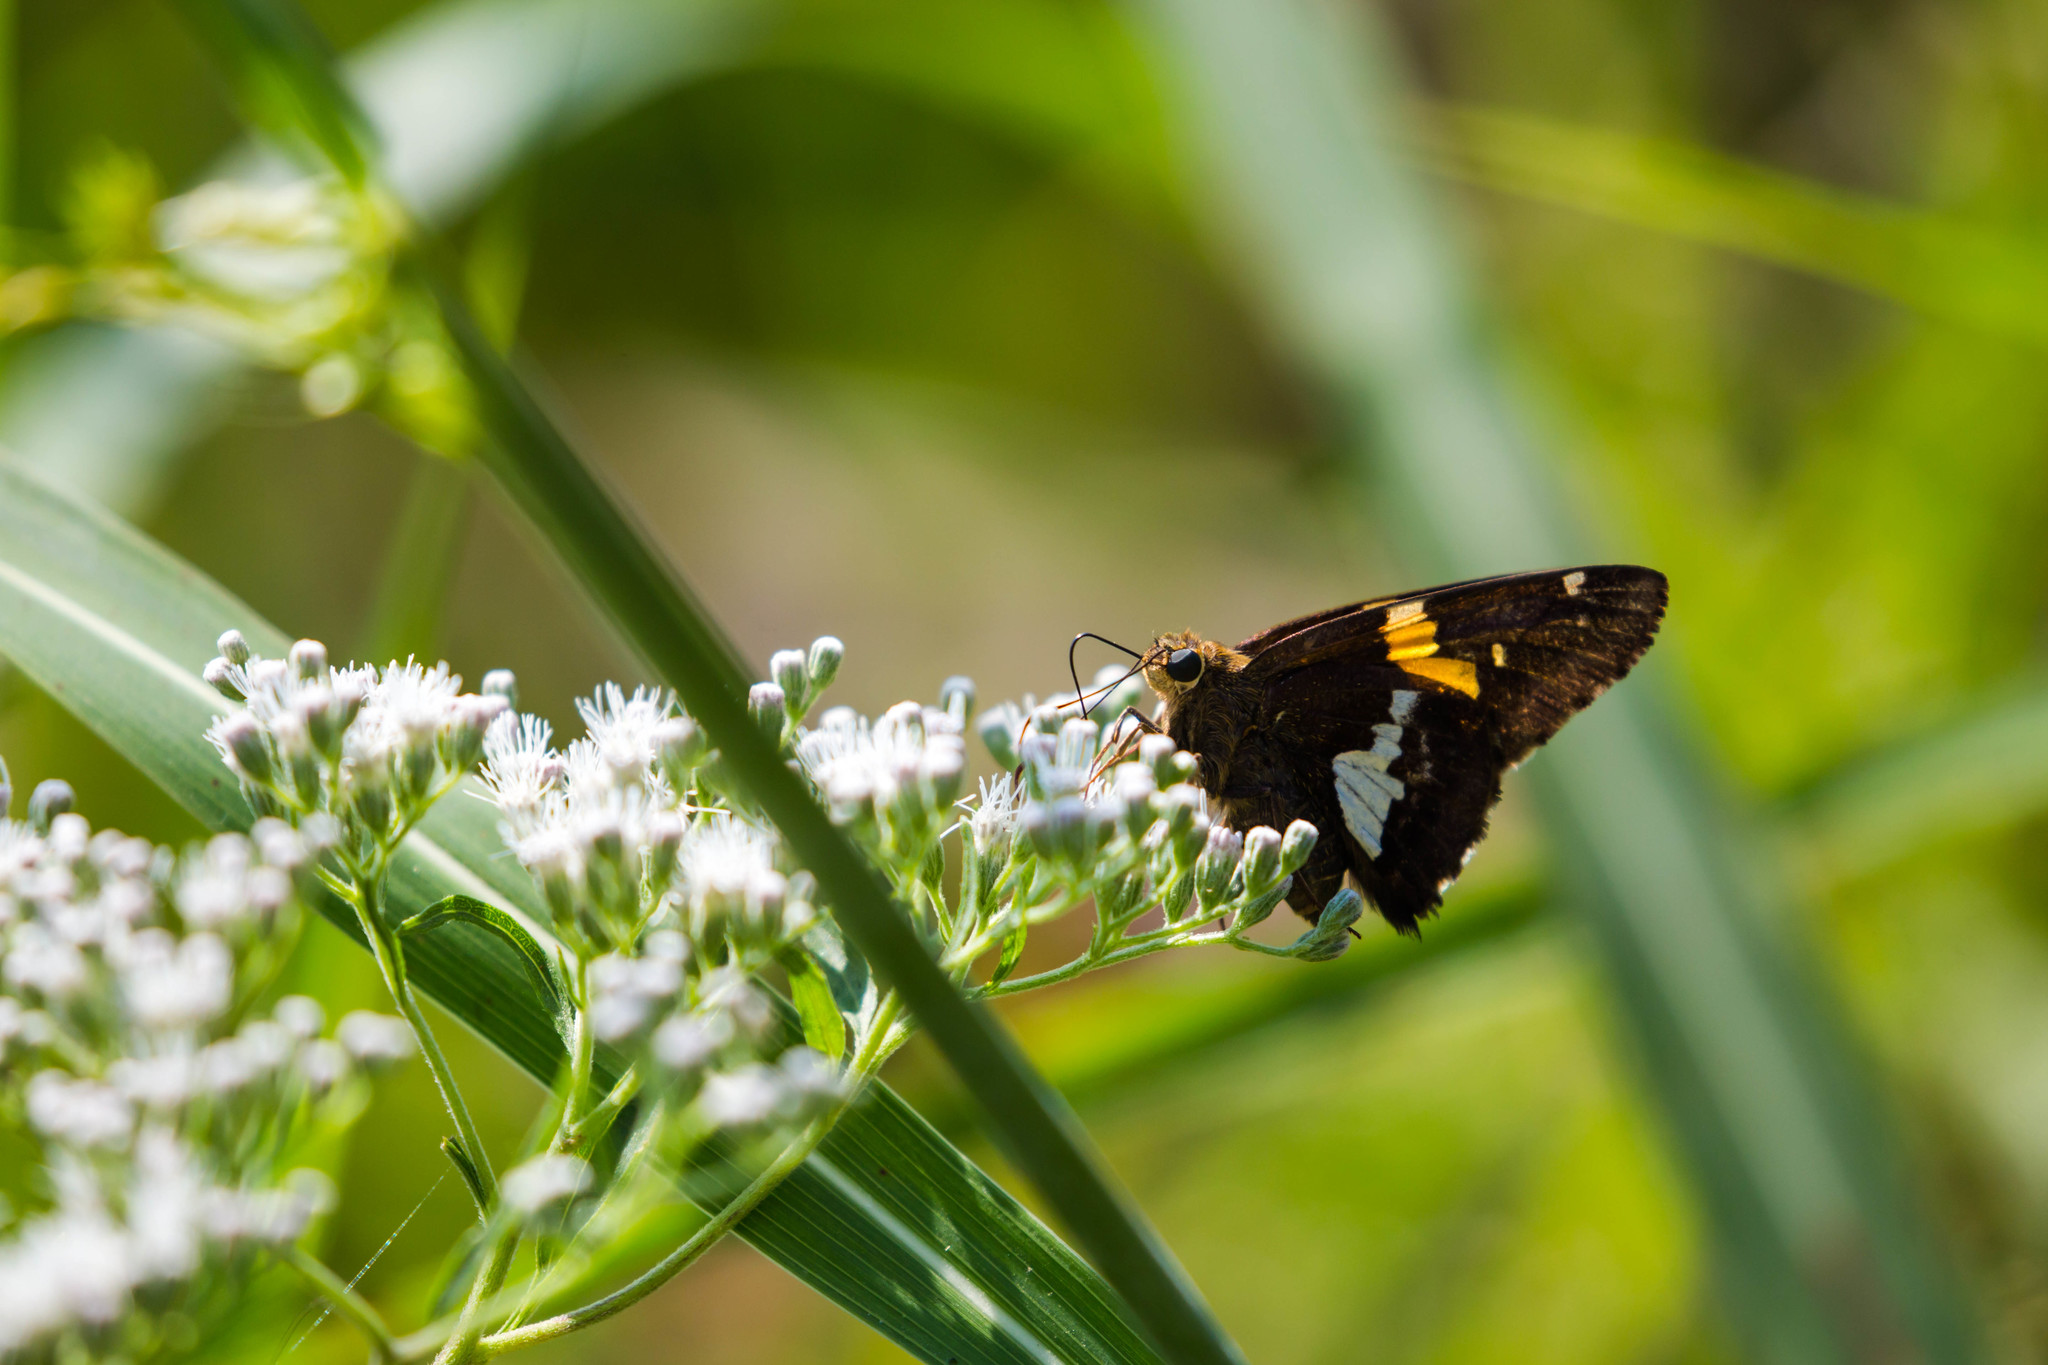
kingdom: Animalia
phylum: Arthropoda
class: Insecta
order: Lepidoptera
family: Hesperiidae
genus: Epargyreus
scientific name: Epargyreus clarus
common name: Silver-spotted skipper
